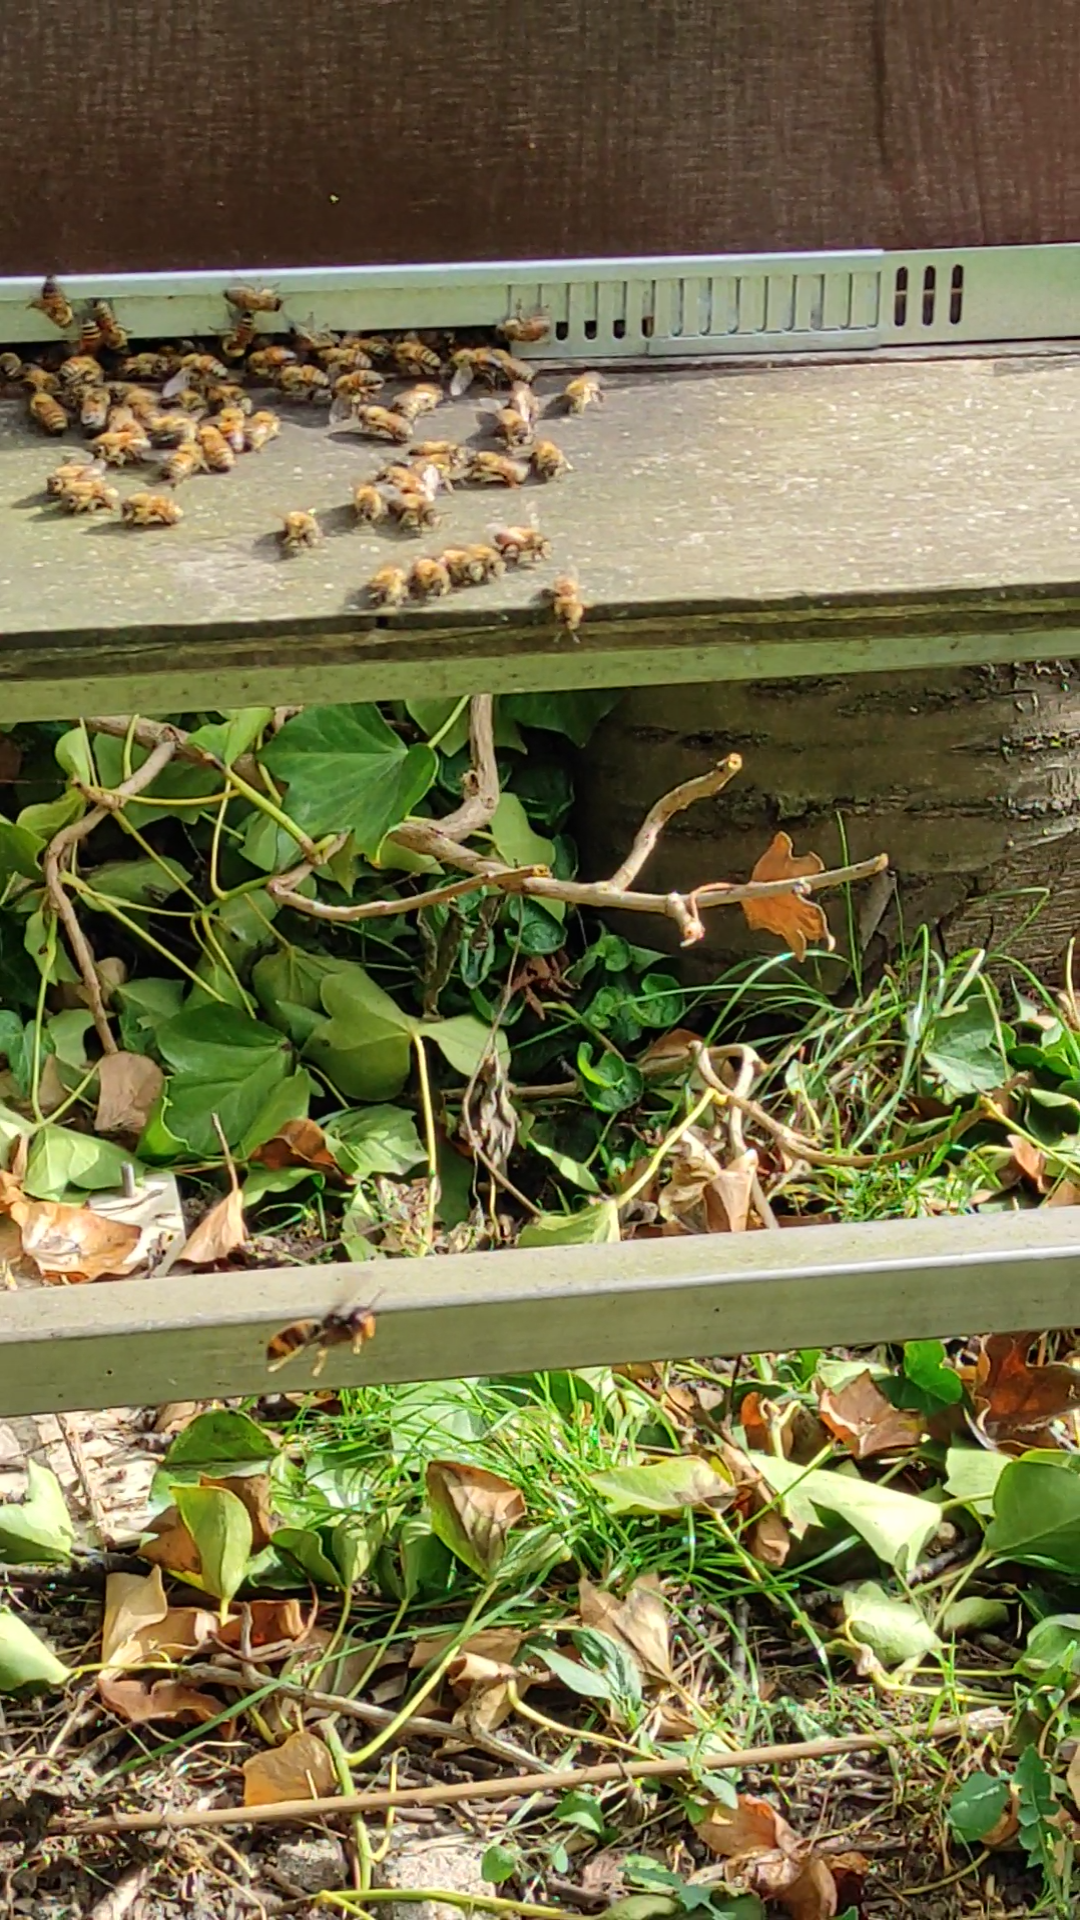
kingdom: Animalia
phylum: Arthropoda
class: Insecta
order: Hymenoptera
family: Vespidae
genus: Vespa
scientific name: Vespa velutina
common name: Asian hornet
